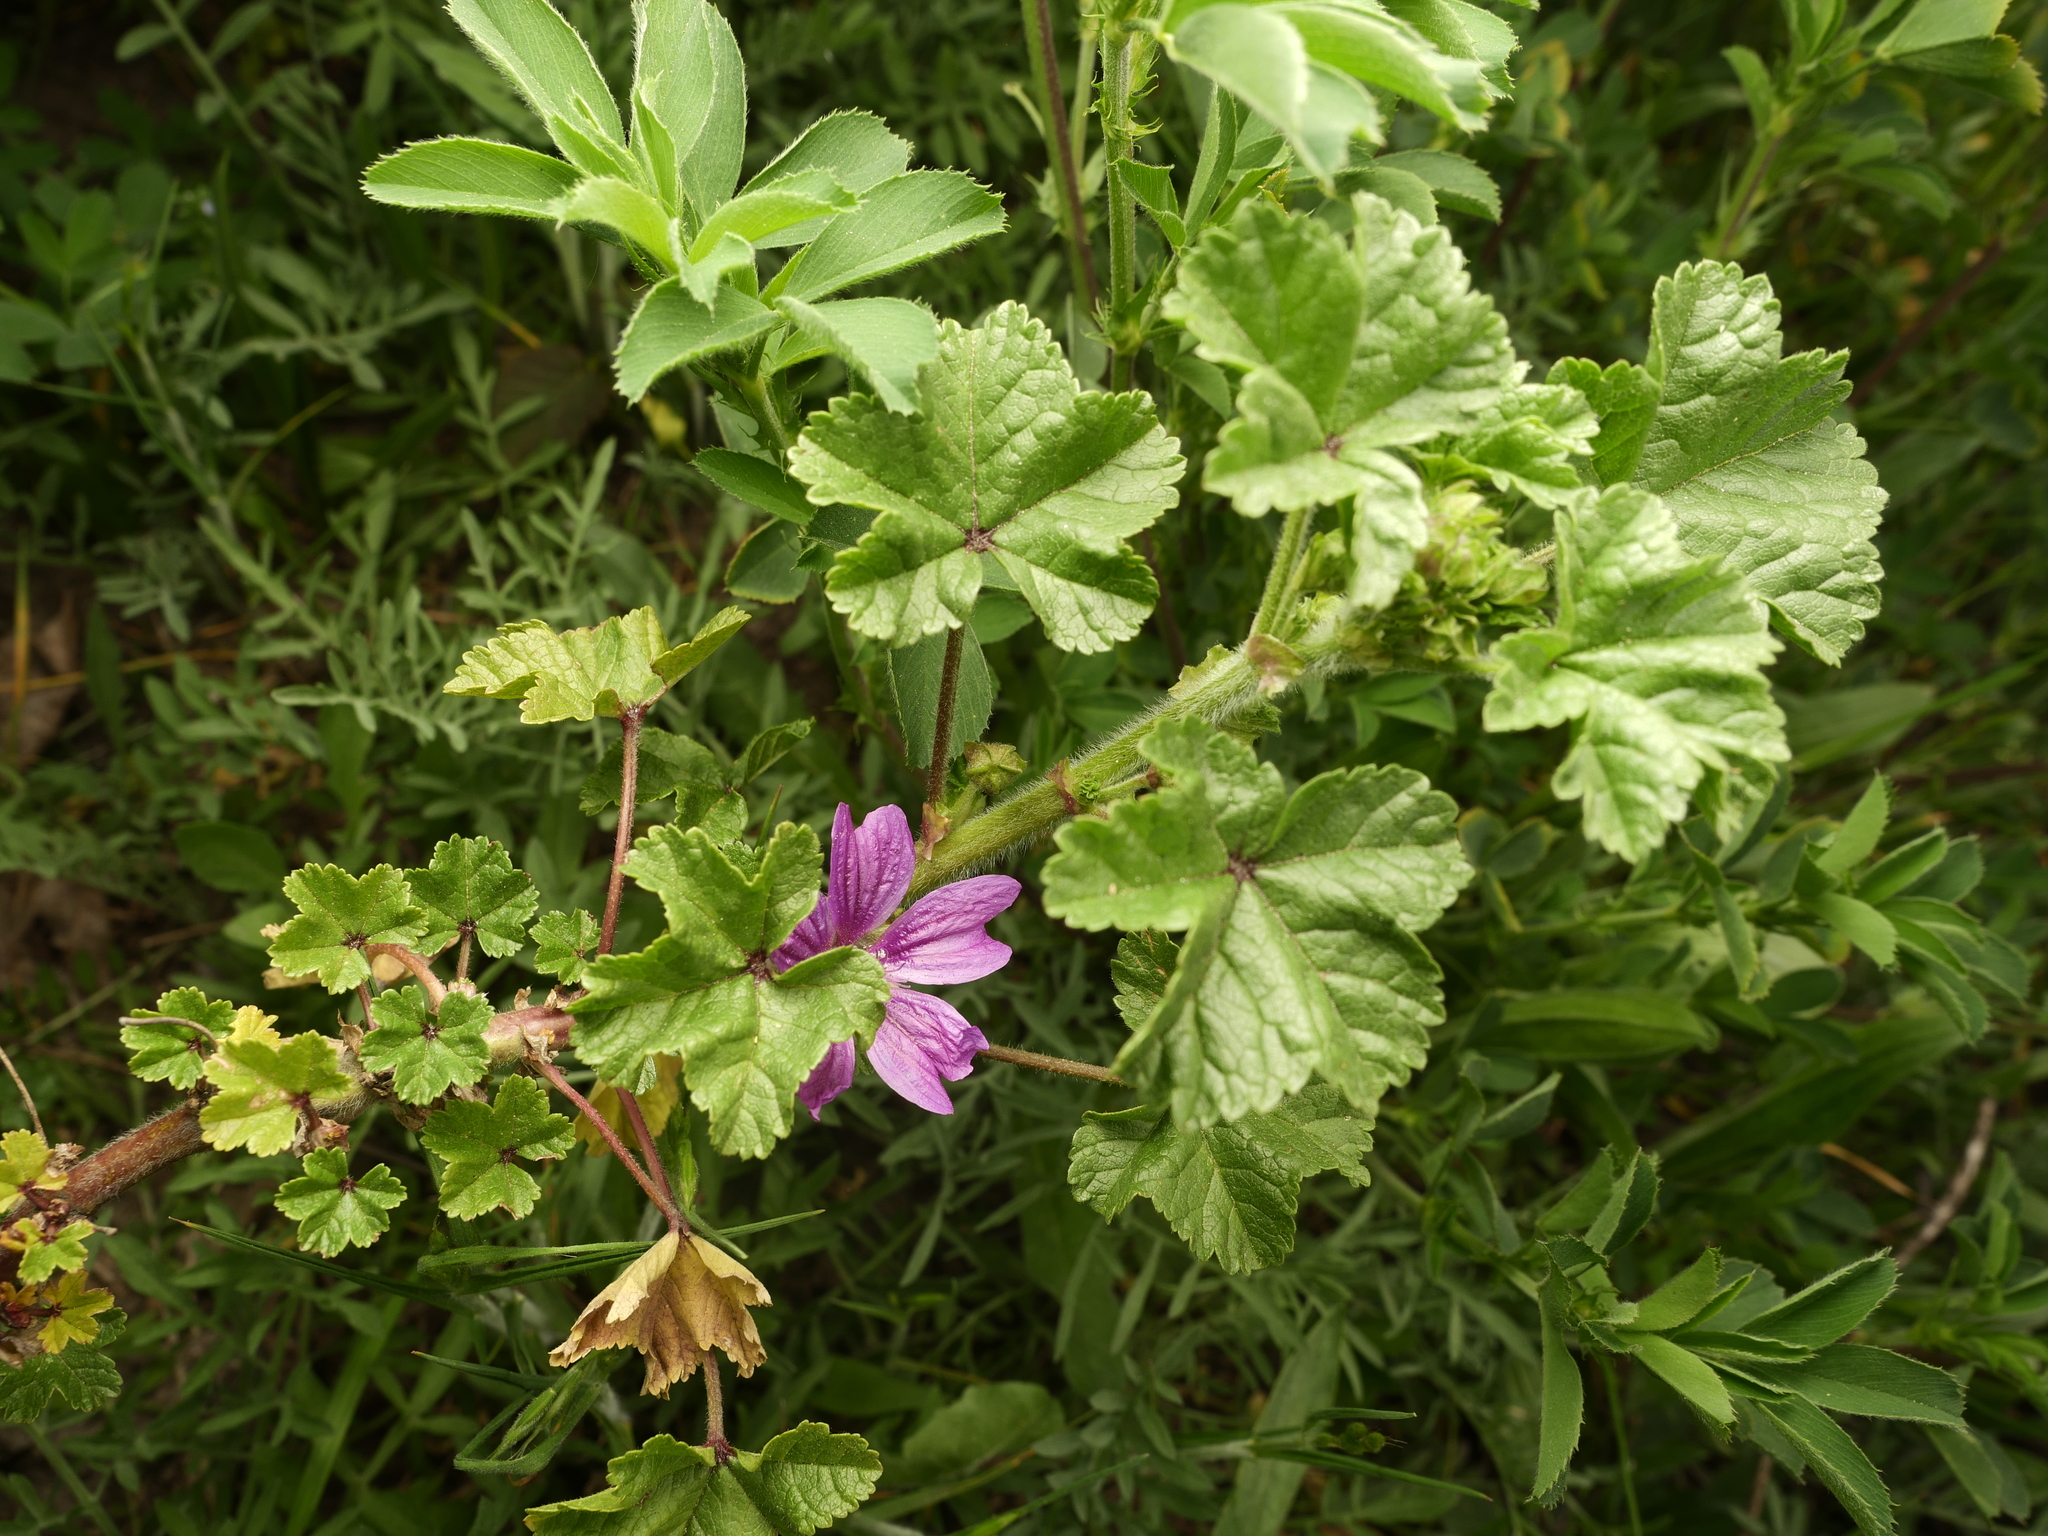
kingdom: Plantae
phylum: Tracheophyta
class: Magnoliopsida
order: Malvales
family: Malvaceae
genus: Malva
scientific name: Malva sylvestris
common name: Common mallow
